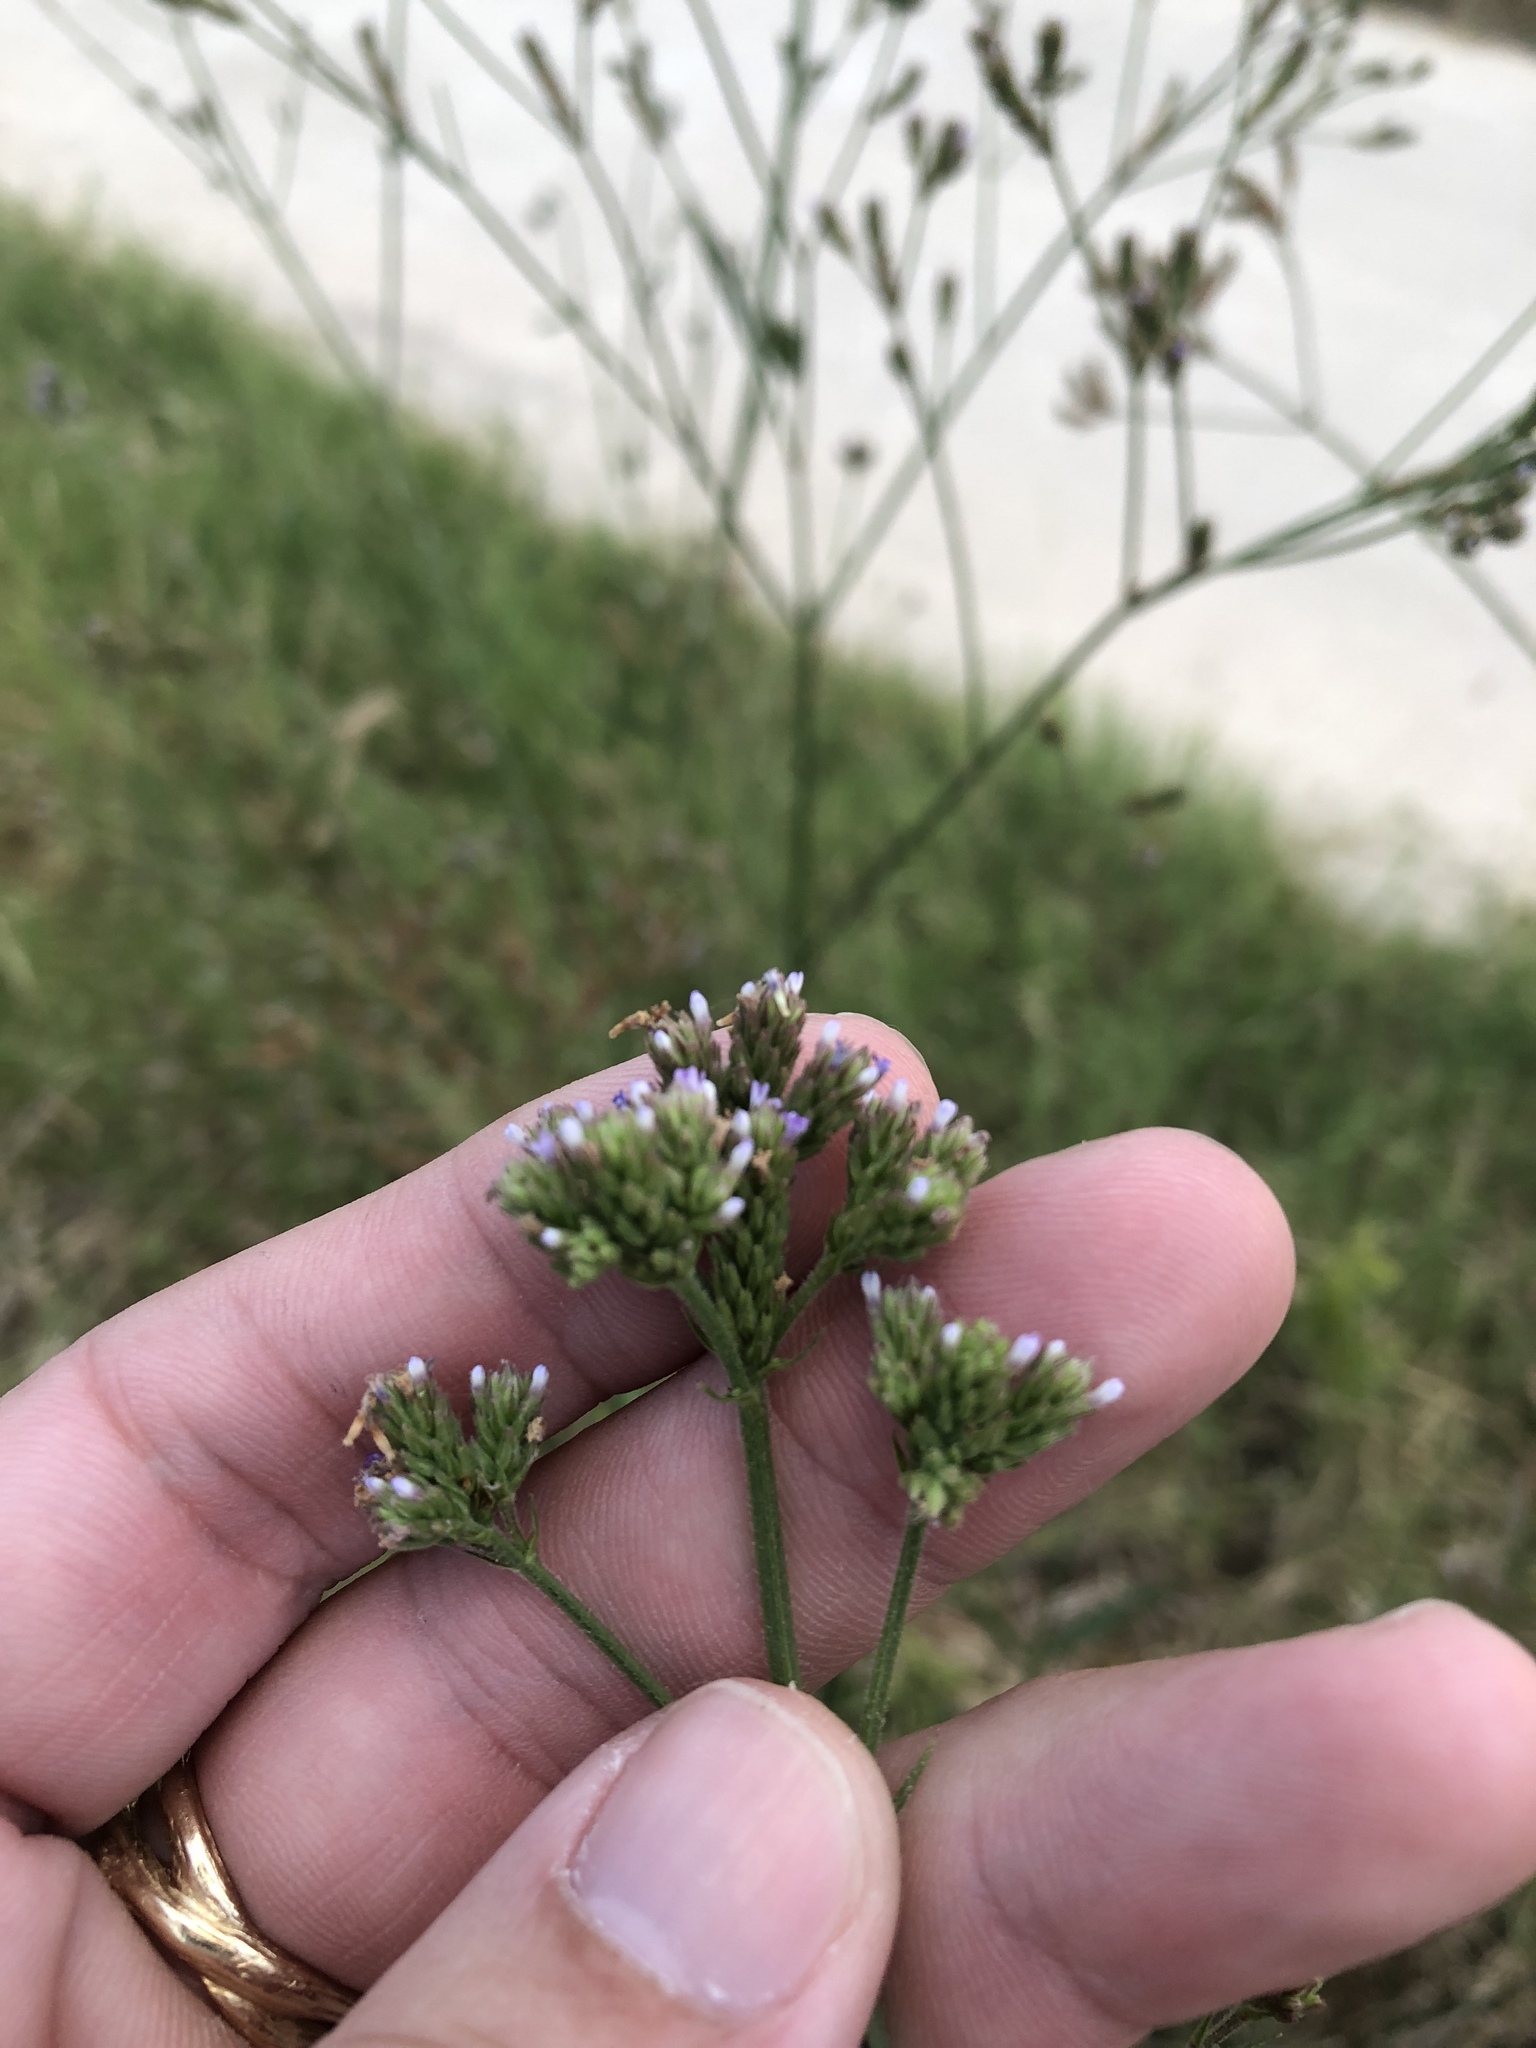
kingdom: Plantae
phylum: Tracheophyta
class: Magnoliopsida
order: Lamiales
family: Verbenaceae
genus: Verbena
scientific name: Verbena brasiliensis
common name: Brazilian vervain
